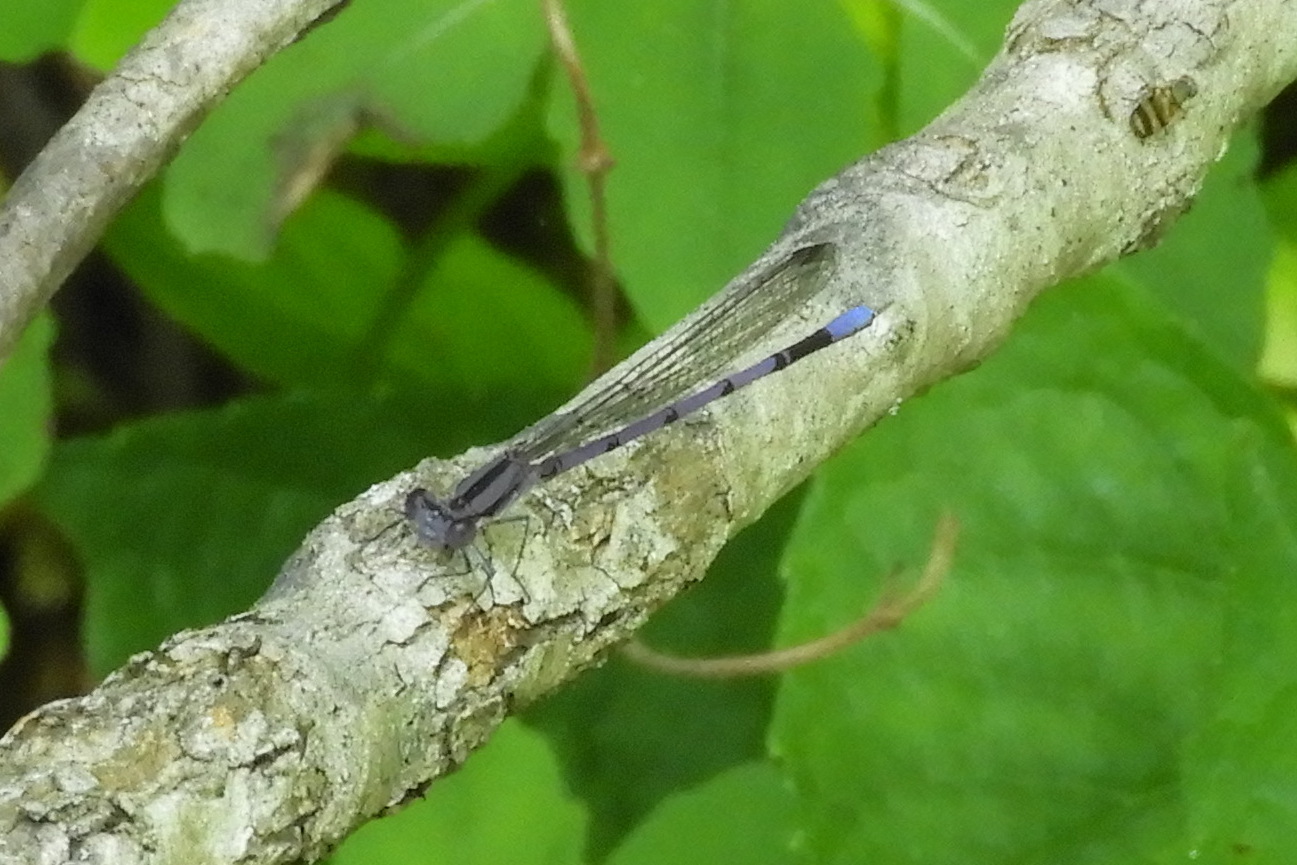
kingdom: Animalia
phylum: Arthropoda
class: Insecta
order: Odonata
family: Coenagrionidae
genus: Argia
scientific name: Argia fumipennis
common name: Variable dancer
